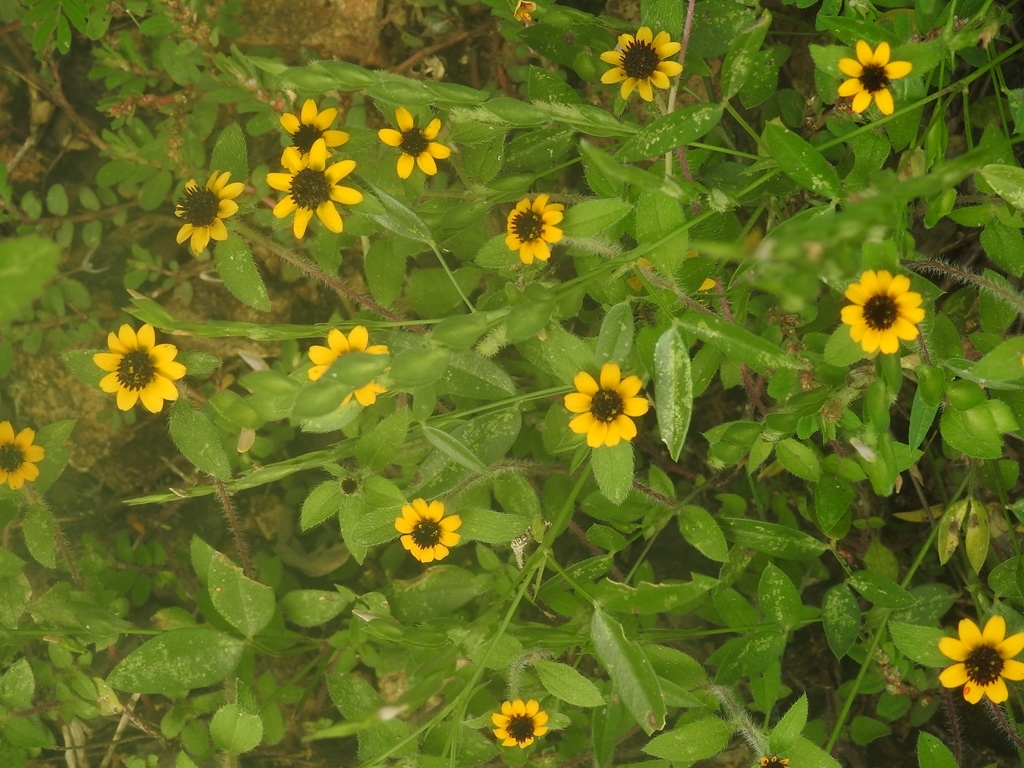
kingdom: Plantae
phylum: Tracheophyta
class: Magnoliopsida
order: Asterales
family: Asteraceae
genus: Sanvitalia
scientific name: Sanvitalia procumbens
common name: Mexican creeping zinnia
